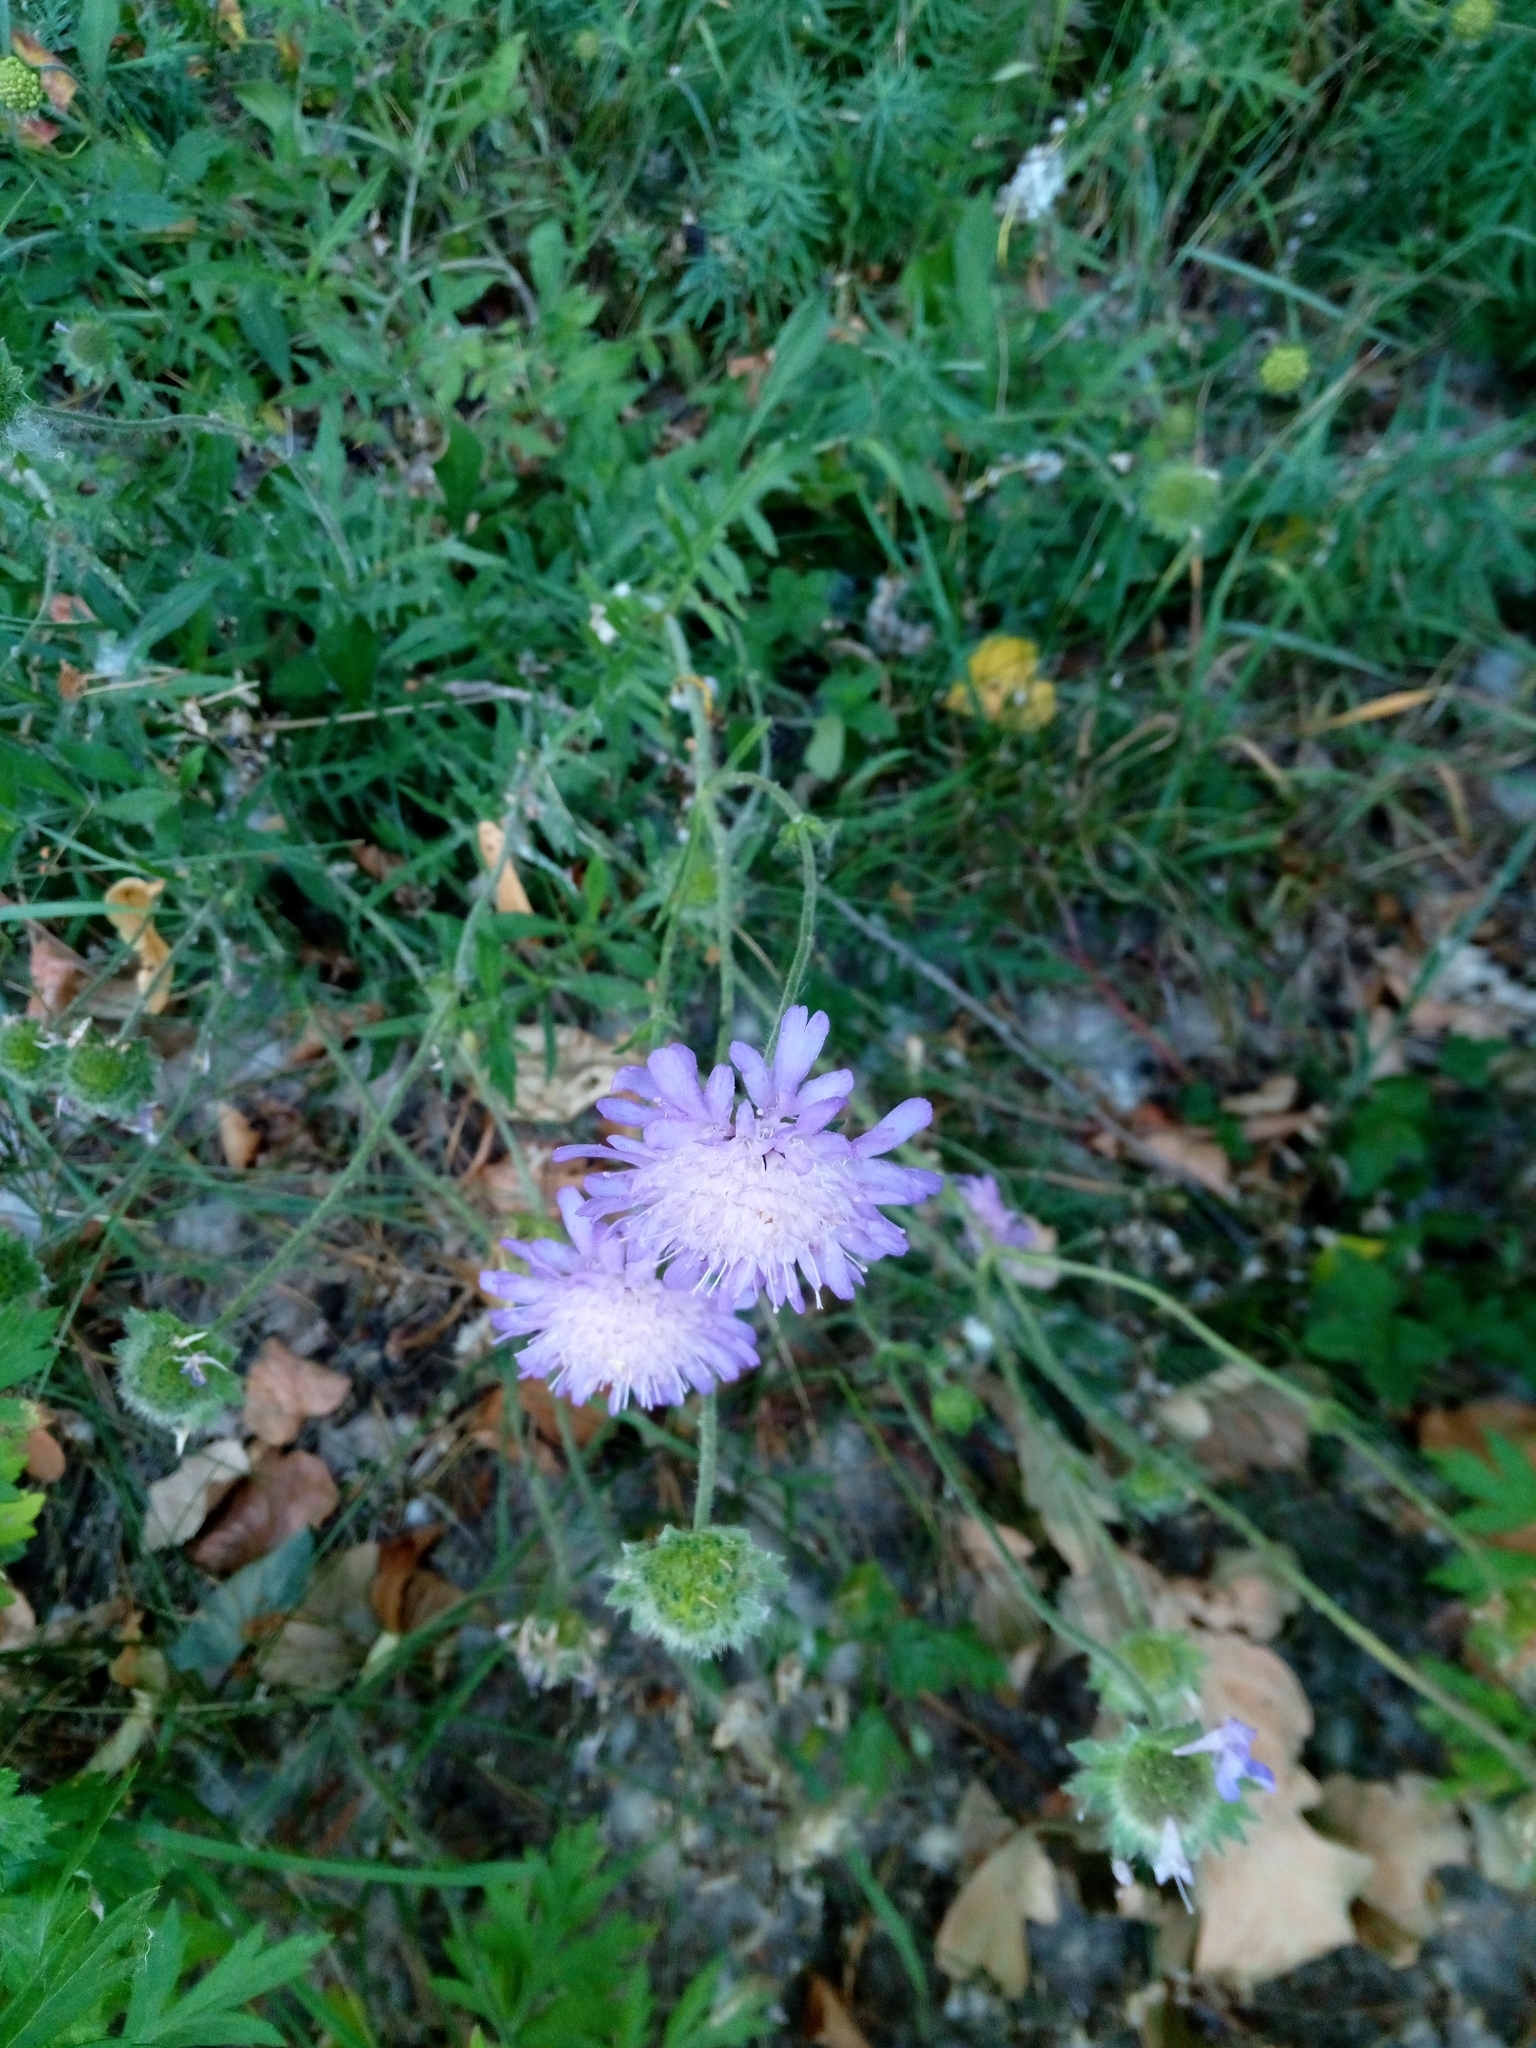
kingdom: Plantae
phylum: Tracheophyta
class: Magnoliopsida
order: Dipsacales
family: Caprifoliaceae
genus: Knautia
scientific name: Knautia arvensis
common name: Field scabiosa
